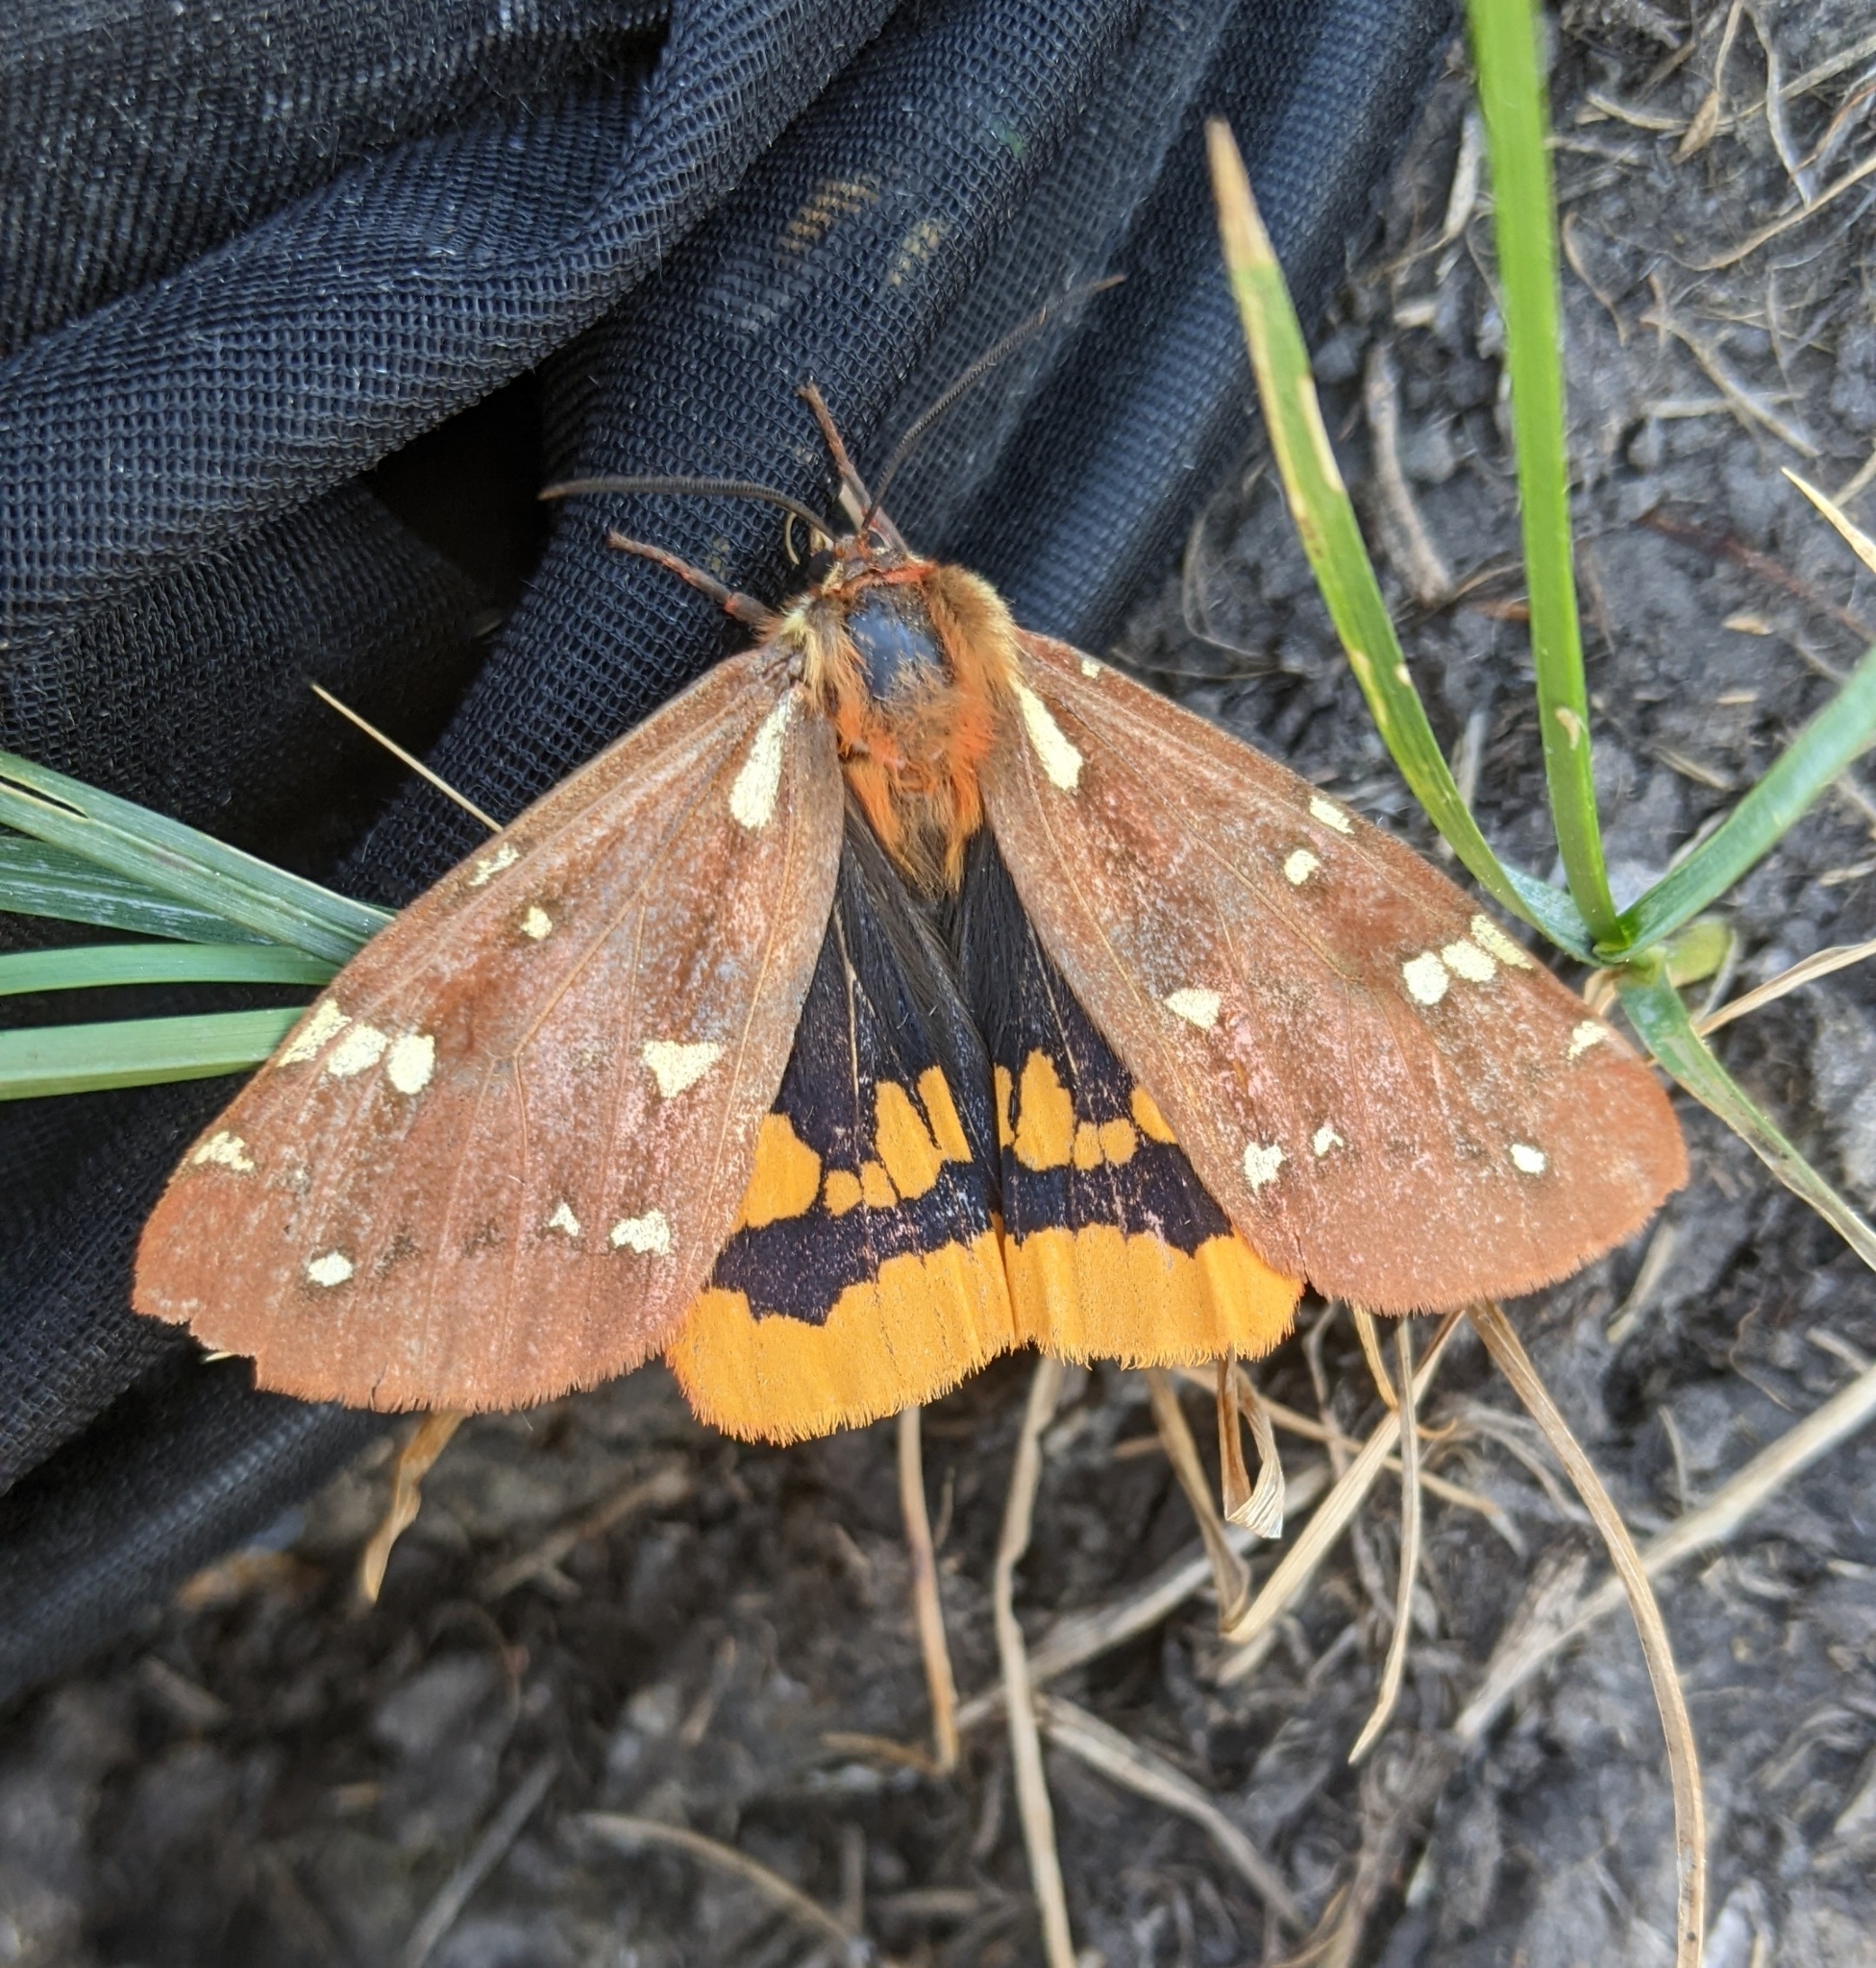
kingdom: Animalia
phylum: Arthropoda
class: Insecta
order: Lepidoptera
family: Erebidae
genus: Arctia
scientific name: Arctia parthenos
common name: St. lawrence tiger moth
